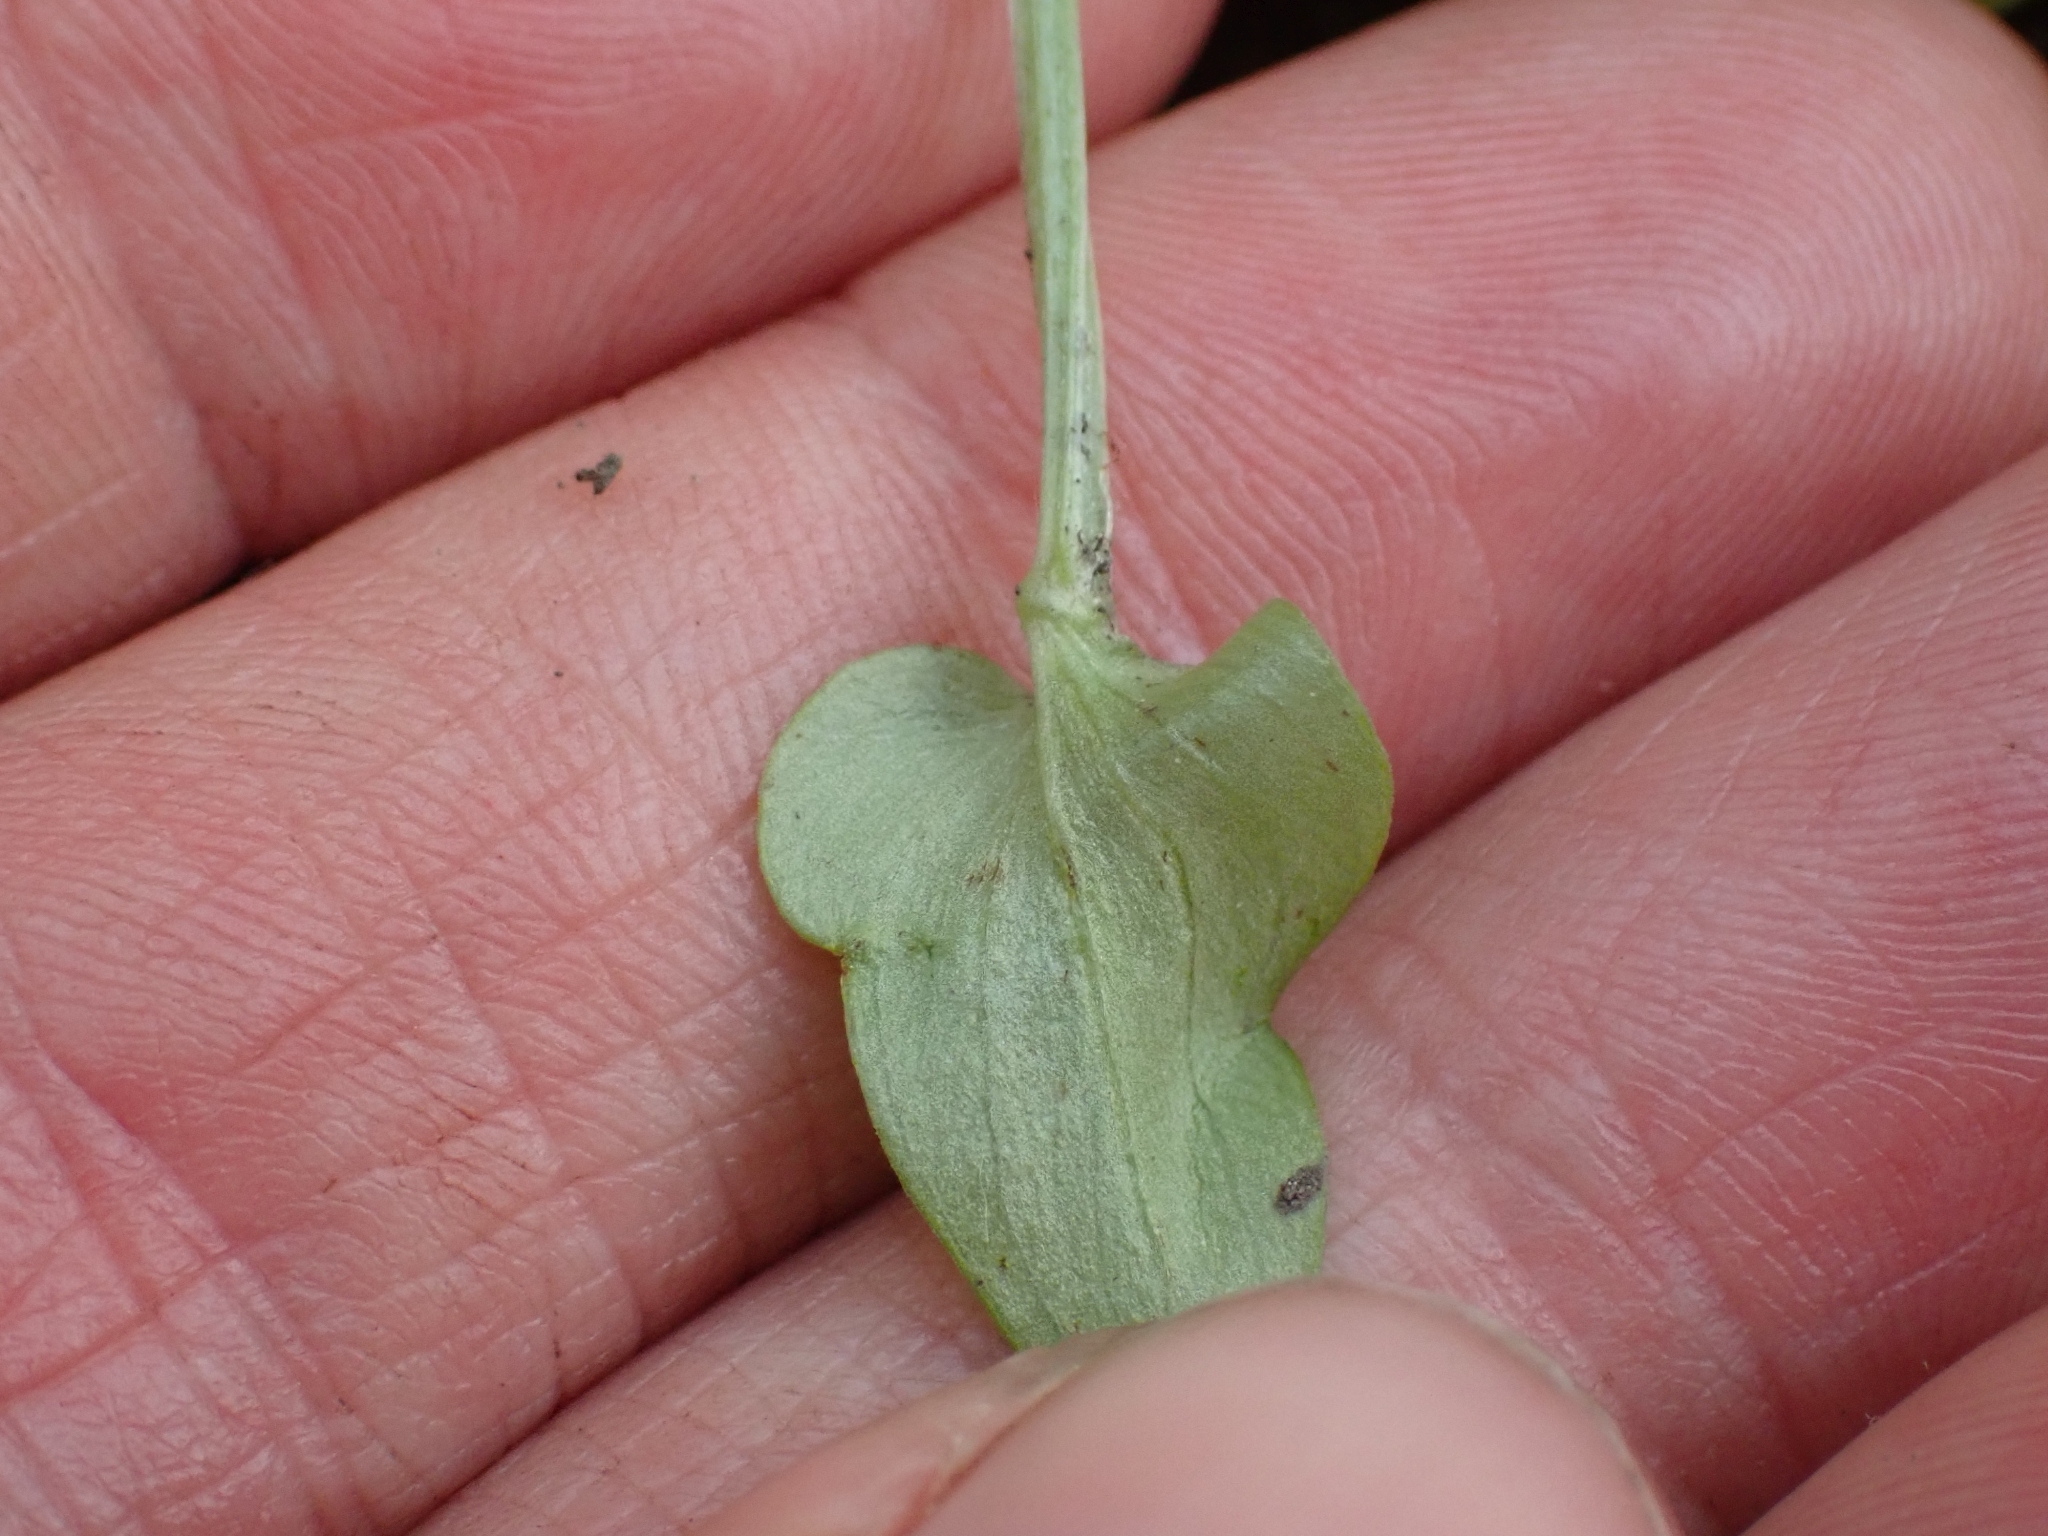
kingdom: Plantae
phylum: Tracheophyta
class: Magnoliopsida
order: Celastrales
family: Parnassiaceae
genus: Parnassia
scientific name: Parnassia palustris
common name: Grass-of-parnassus
